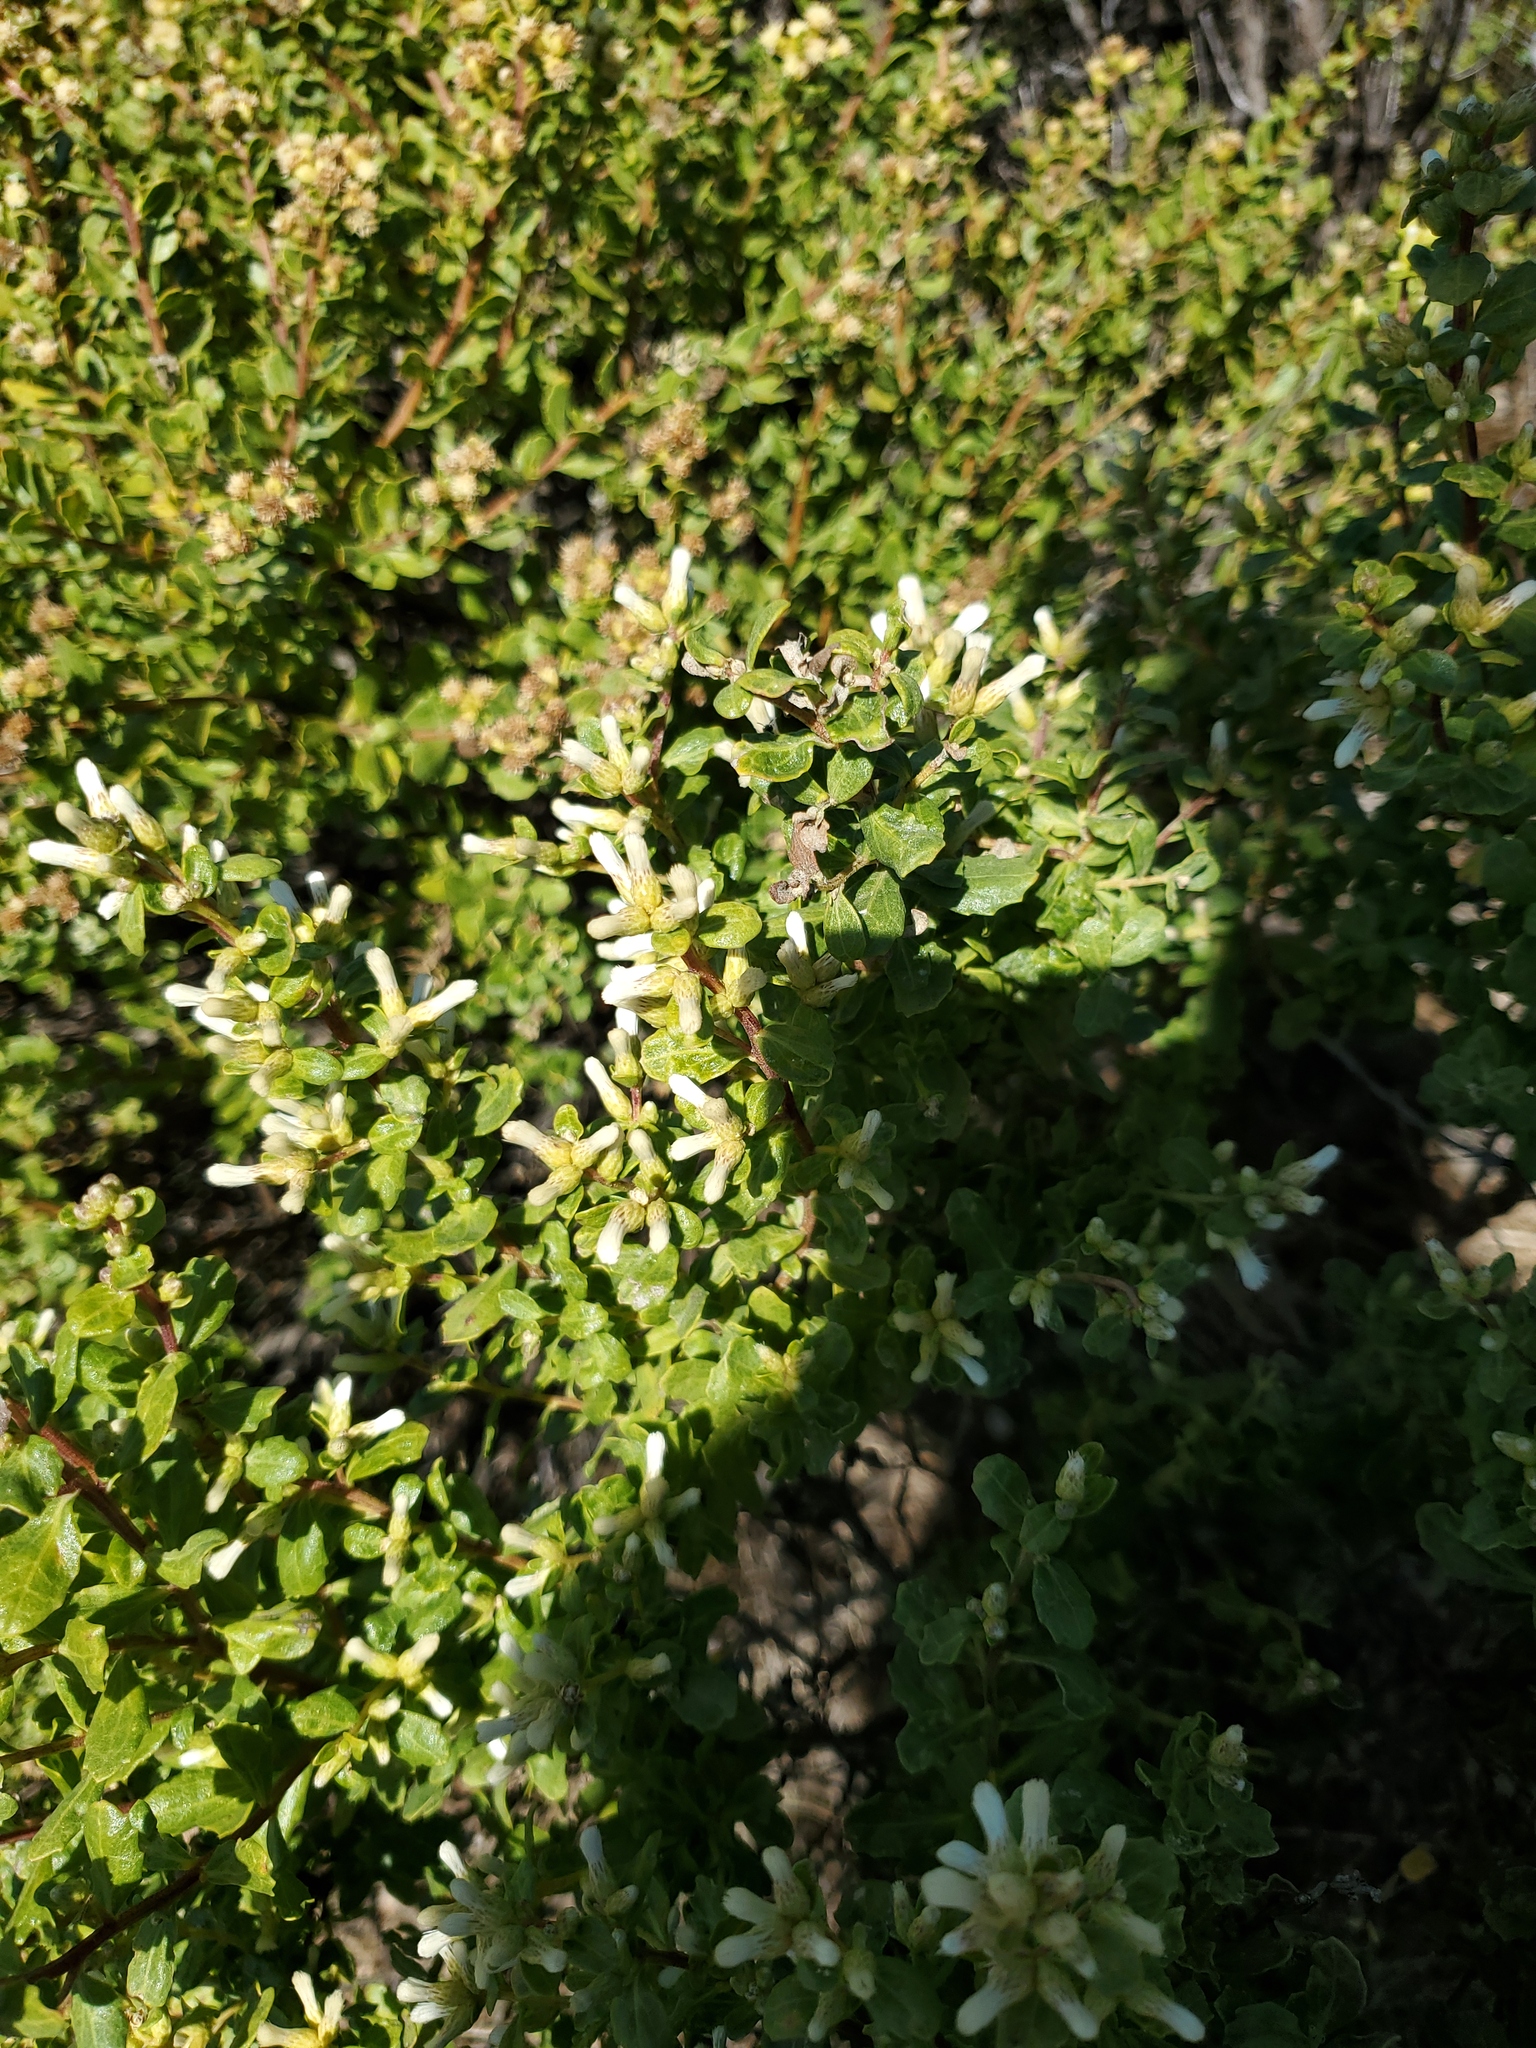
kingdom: Plantae
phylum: Tracheophyta
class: Magnoliopsida
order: Asterales
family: Asteraceae
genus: Baccharis
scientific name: Baccharis pilularis
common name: Coyotebrush
